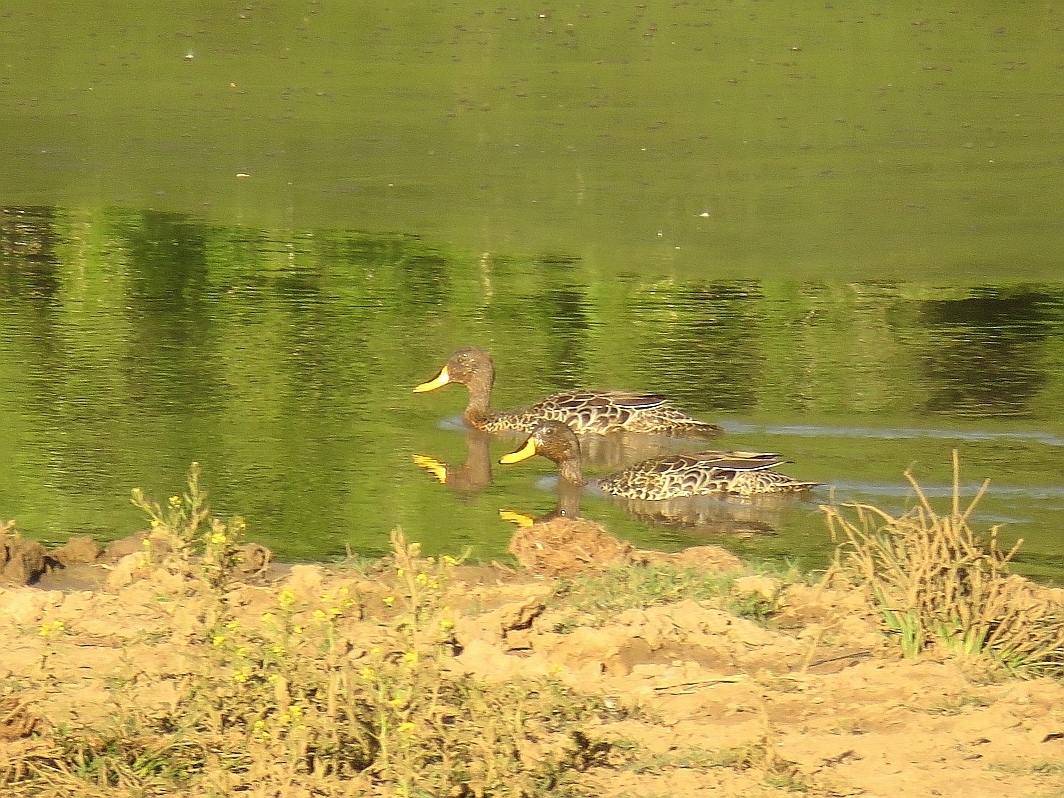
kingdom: Animalia
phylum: Chordata
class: Aves
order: Anseriformes
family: Anatidae
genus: Anas
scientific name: Anas undulata
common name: Yellow-billed duck
